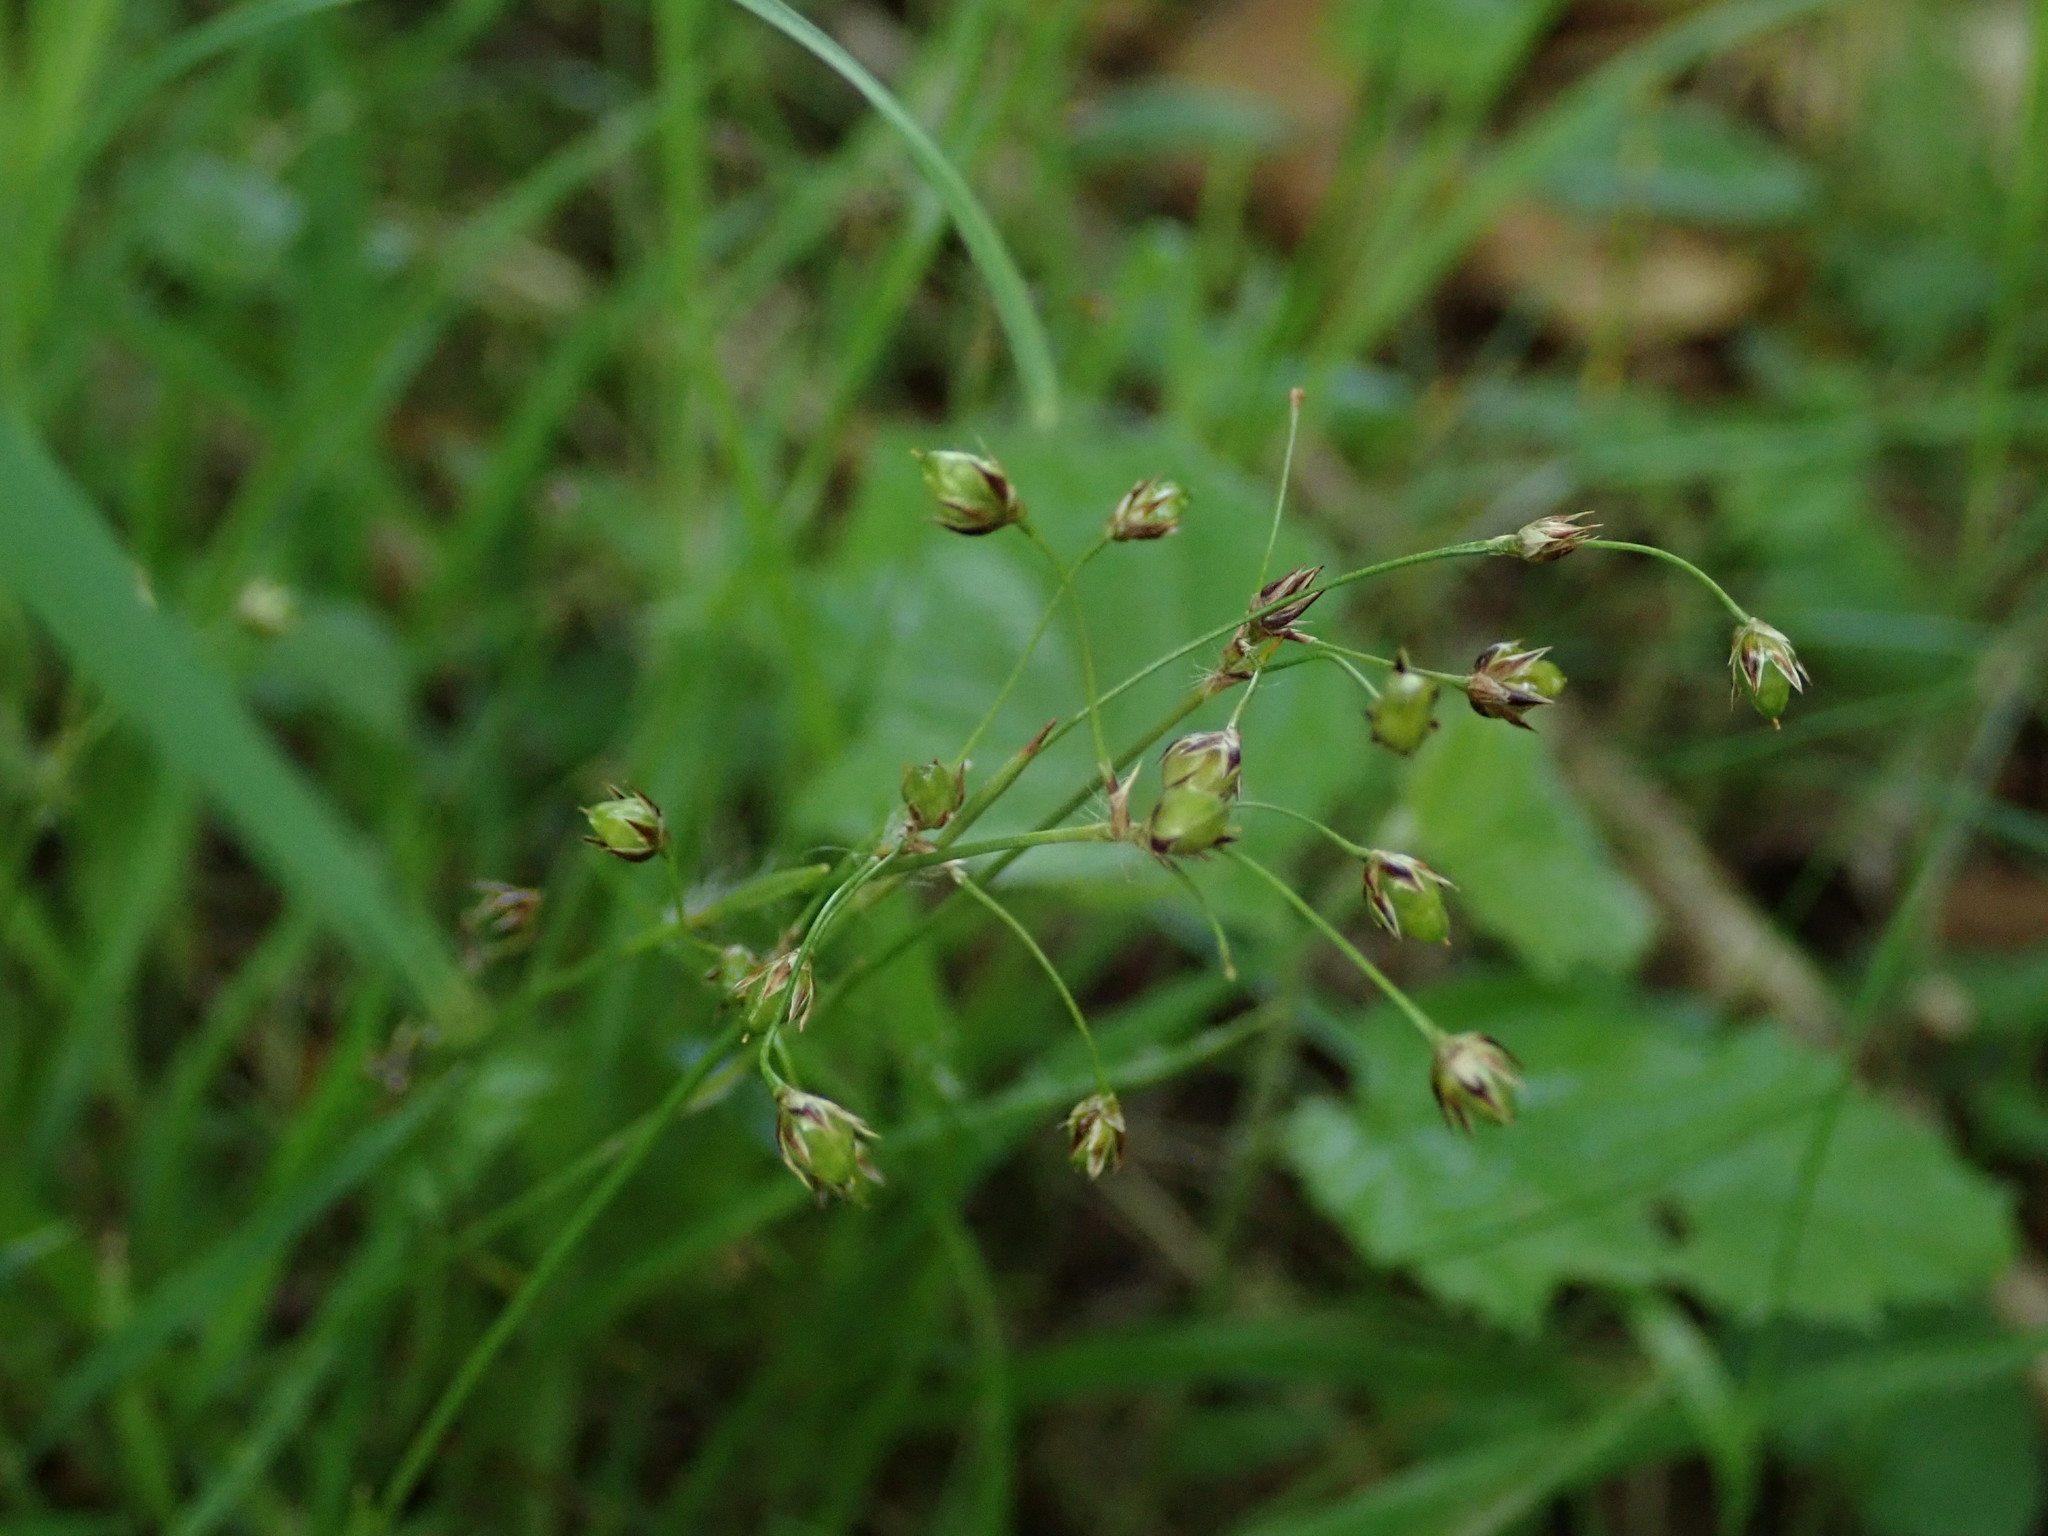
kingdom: Plantae
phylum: Tracheophyta
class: Liliopsida
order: Poales
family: Juncaceae
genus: Luzula
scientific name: Luzula pilosa
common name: Hairy wood-rush
